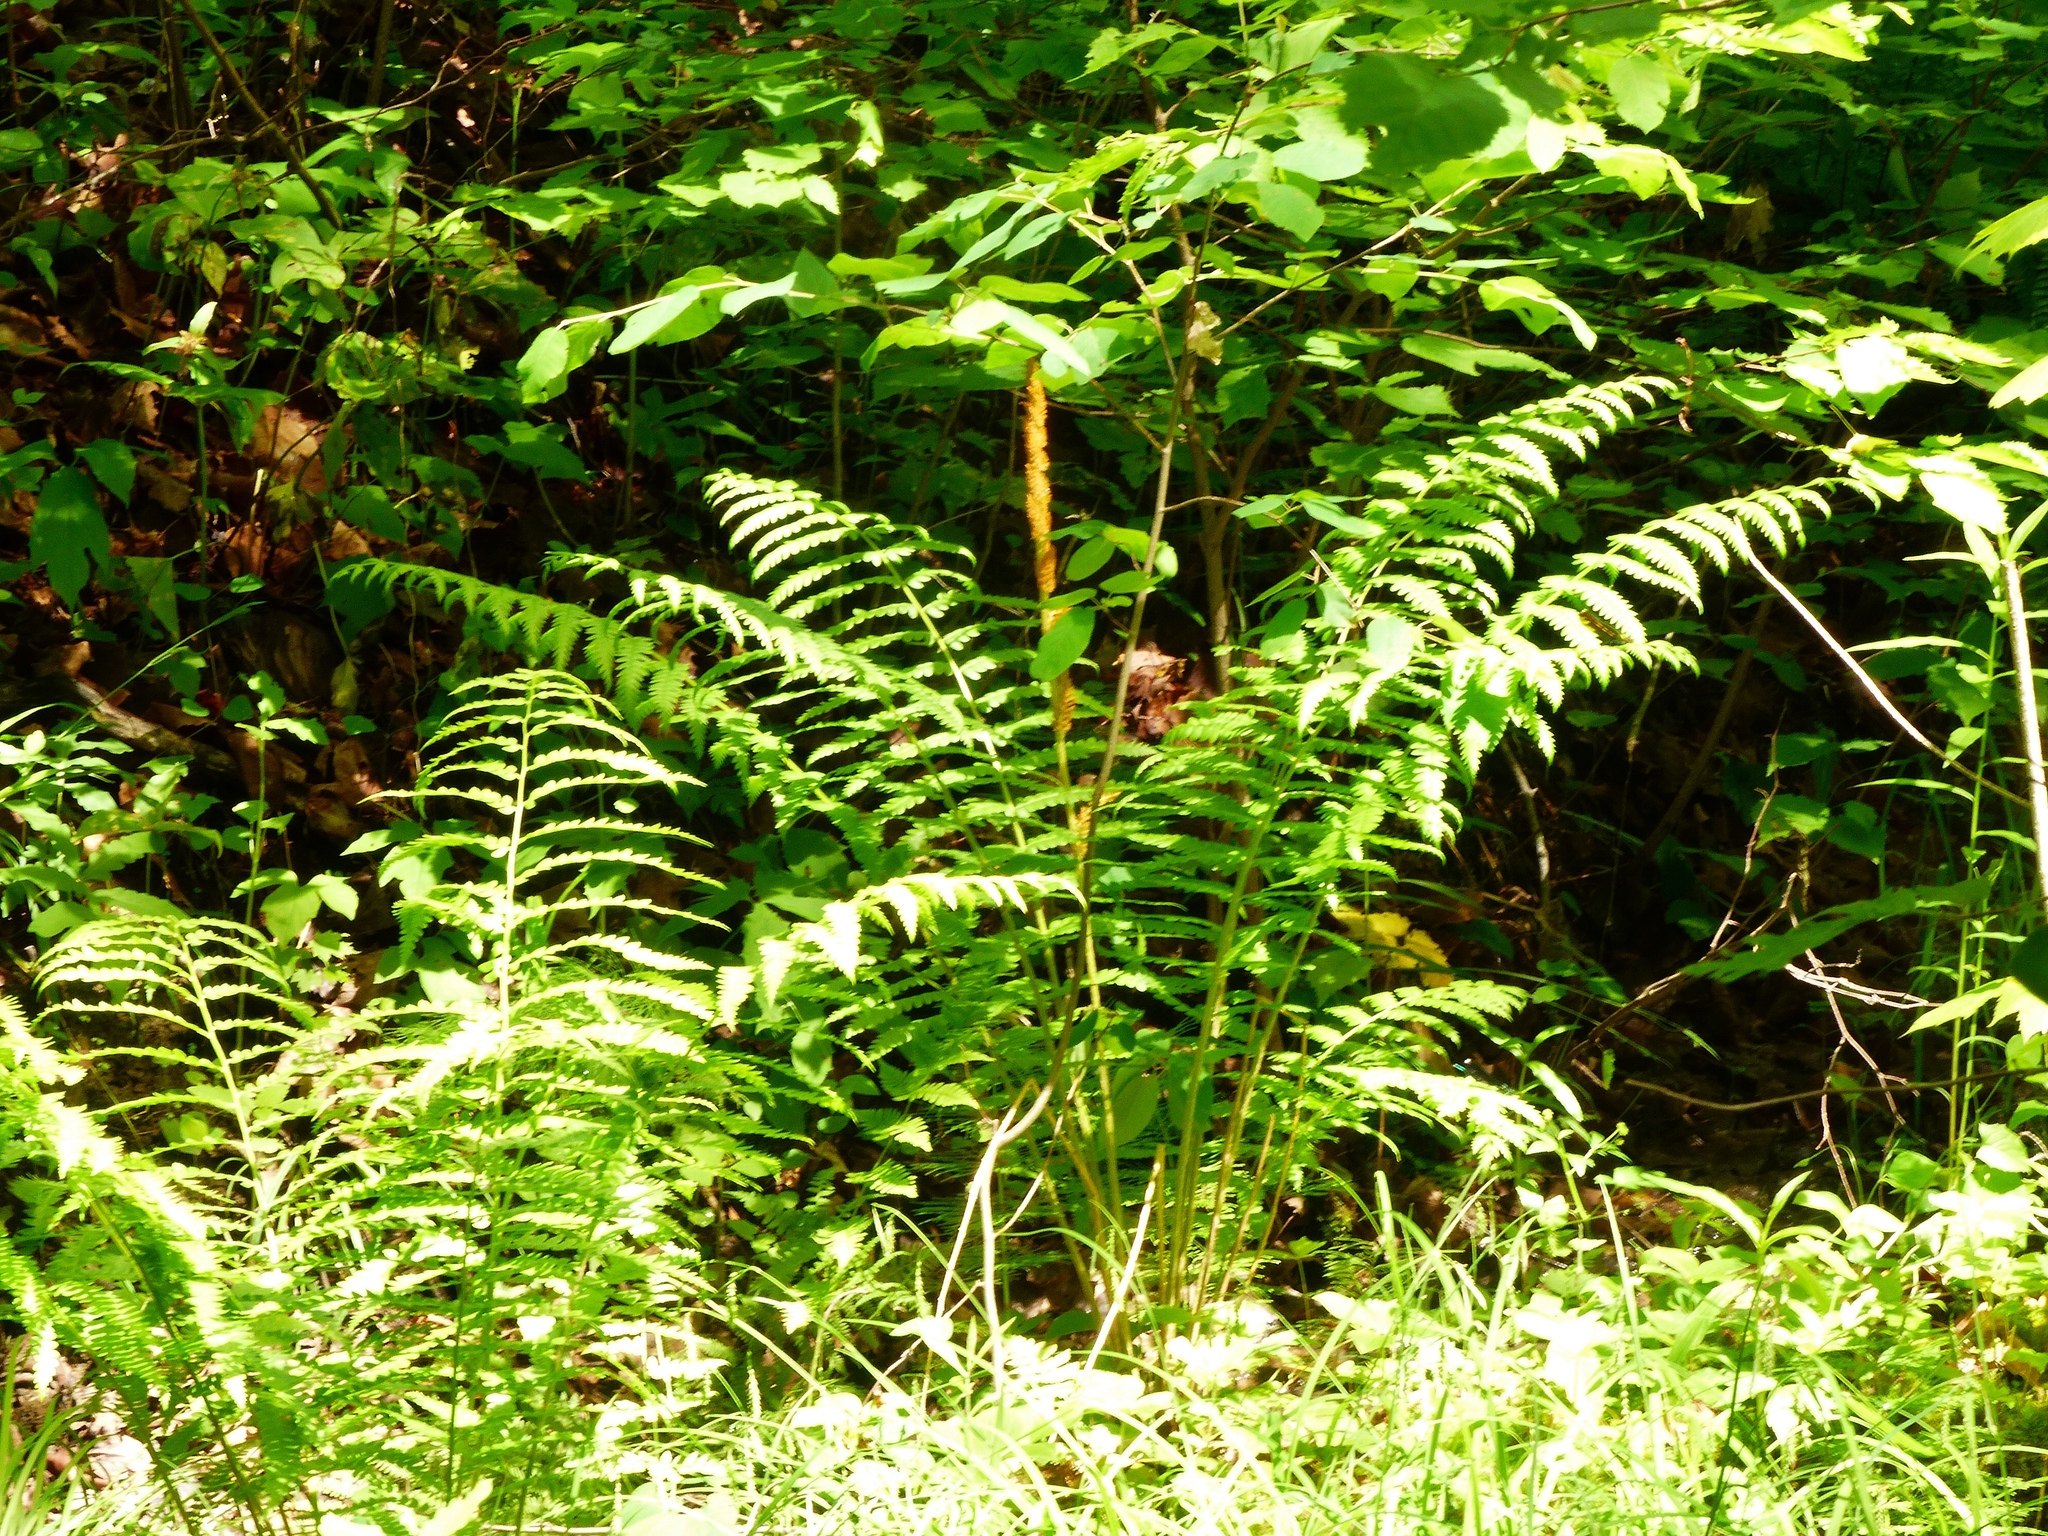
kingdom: Plantae
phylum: Tracheophyta
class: Polypodiopsida
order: Osmundales
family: Osmundaceae
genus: Osmundastrum
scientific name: Osmundastrum cinnamomeum
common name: Cinnamon fern
